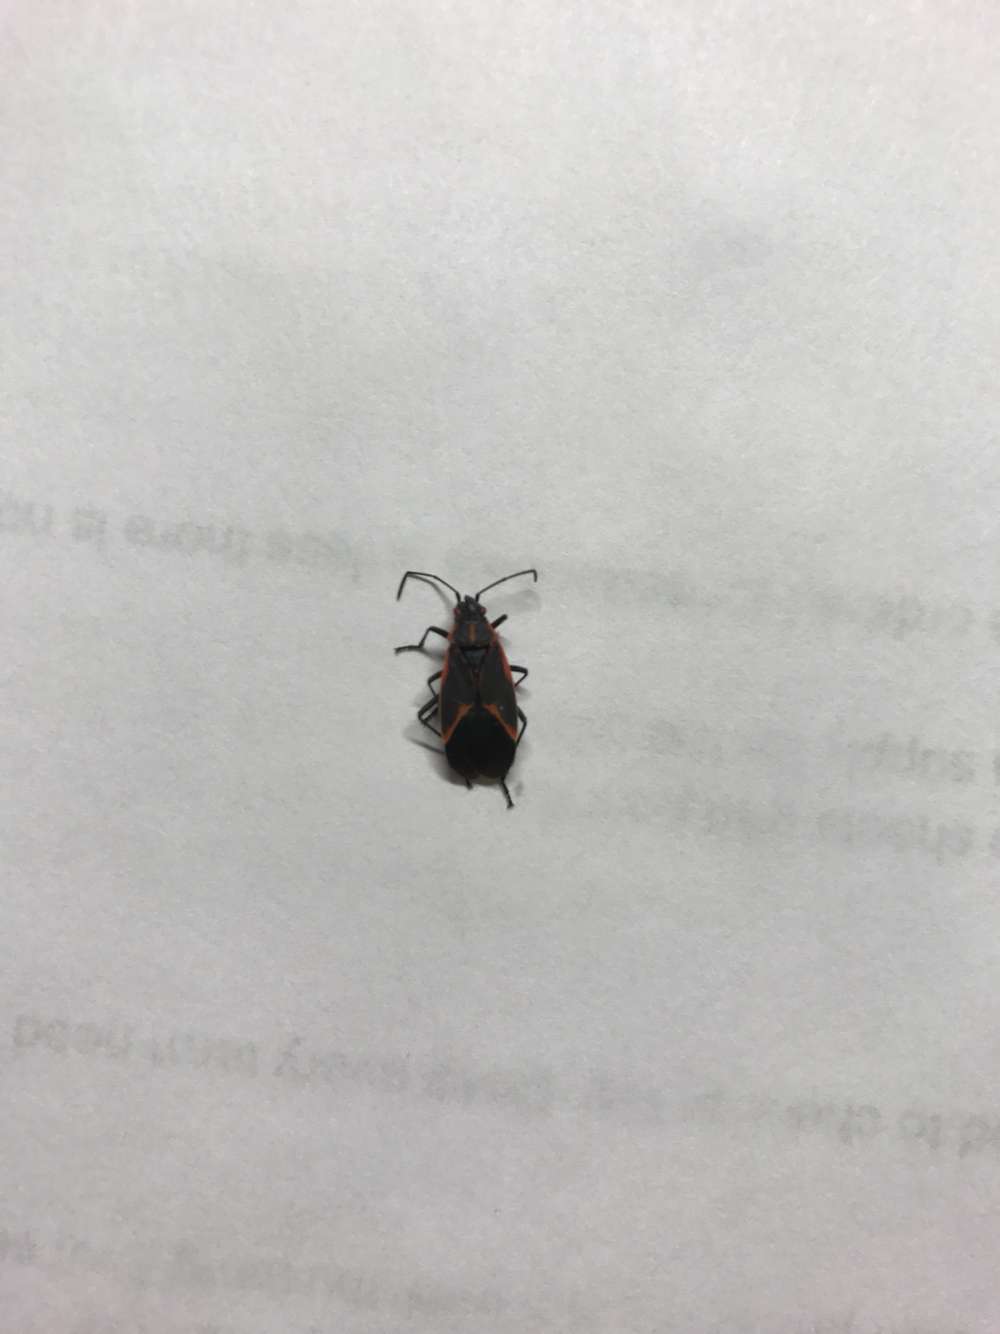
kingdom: Animalia
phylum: Arthropoda
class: Insecta
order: Hemiptera
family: Rhopalidae
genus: Boisea
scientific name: Boisea trivittata
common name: Boxelder bug
